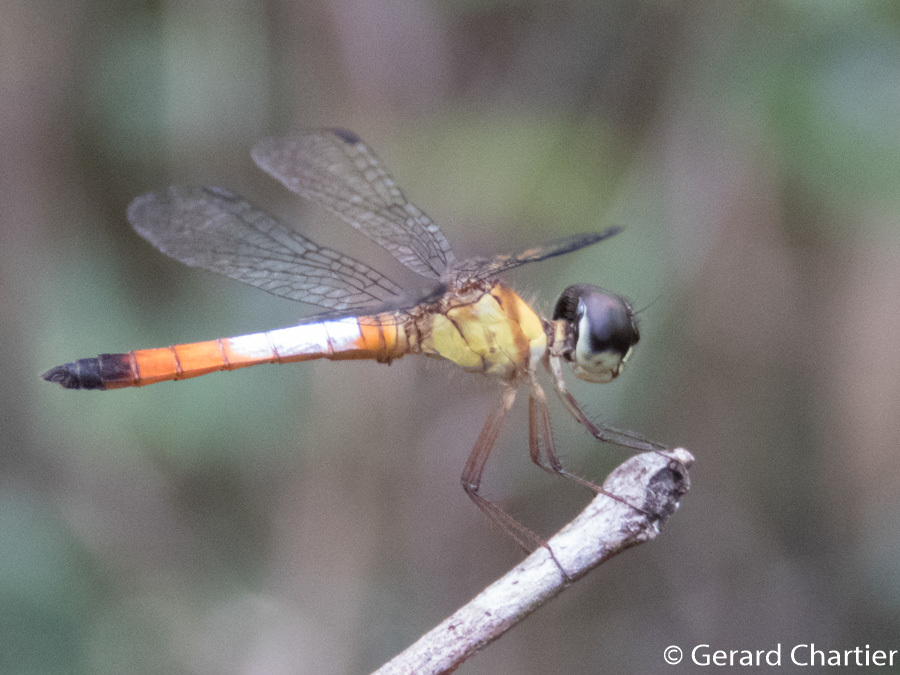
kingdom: Animalia
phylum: Arthropoda
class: Insecta
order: Odonata
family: Libellulidae
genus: Brachygonia
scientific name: Brachygonia oculata
